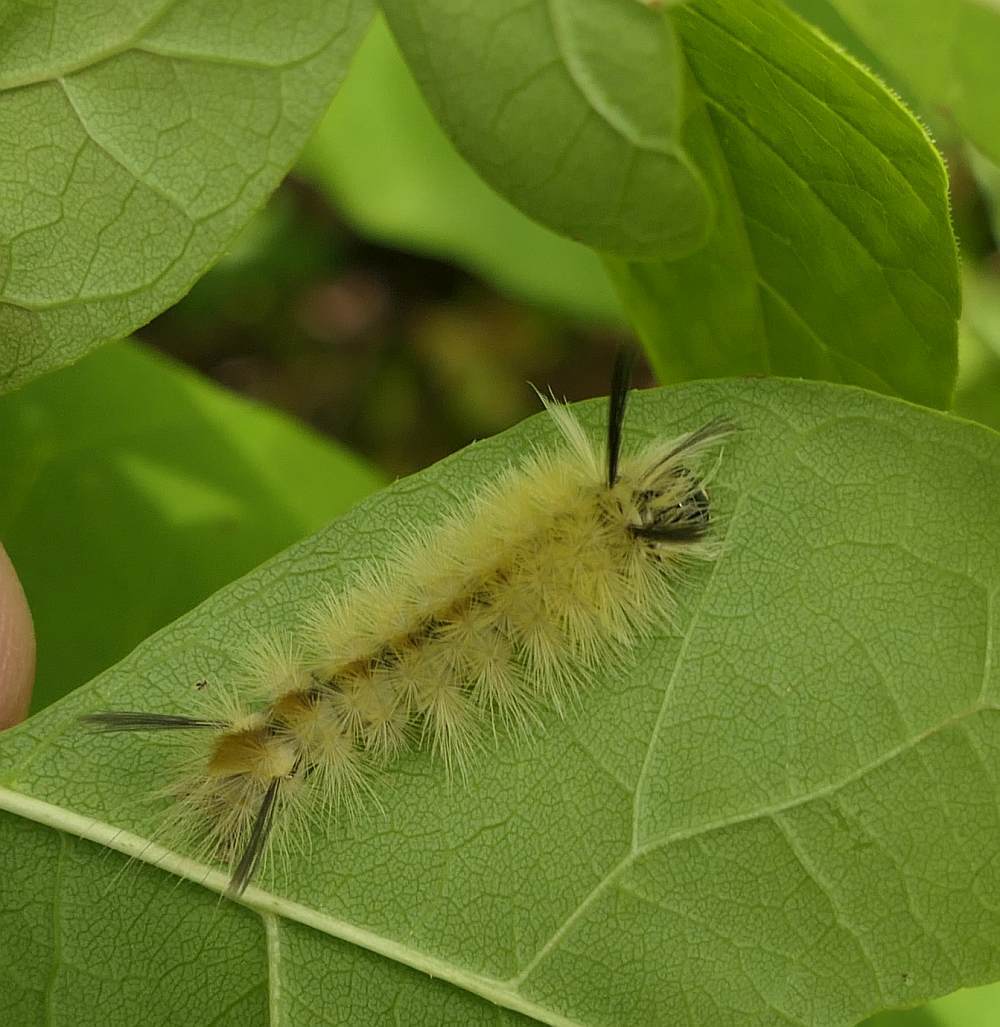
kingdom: Animalia
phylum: Arthropoda
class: Insecta
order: Lepidoptera
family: Erebidae
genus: Halysidota
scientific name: Halysidota tessellaris
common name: Banded tussock moth
